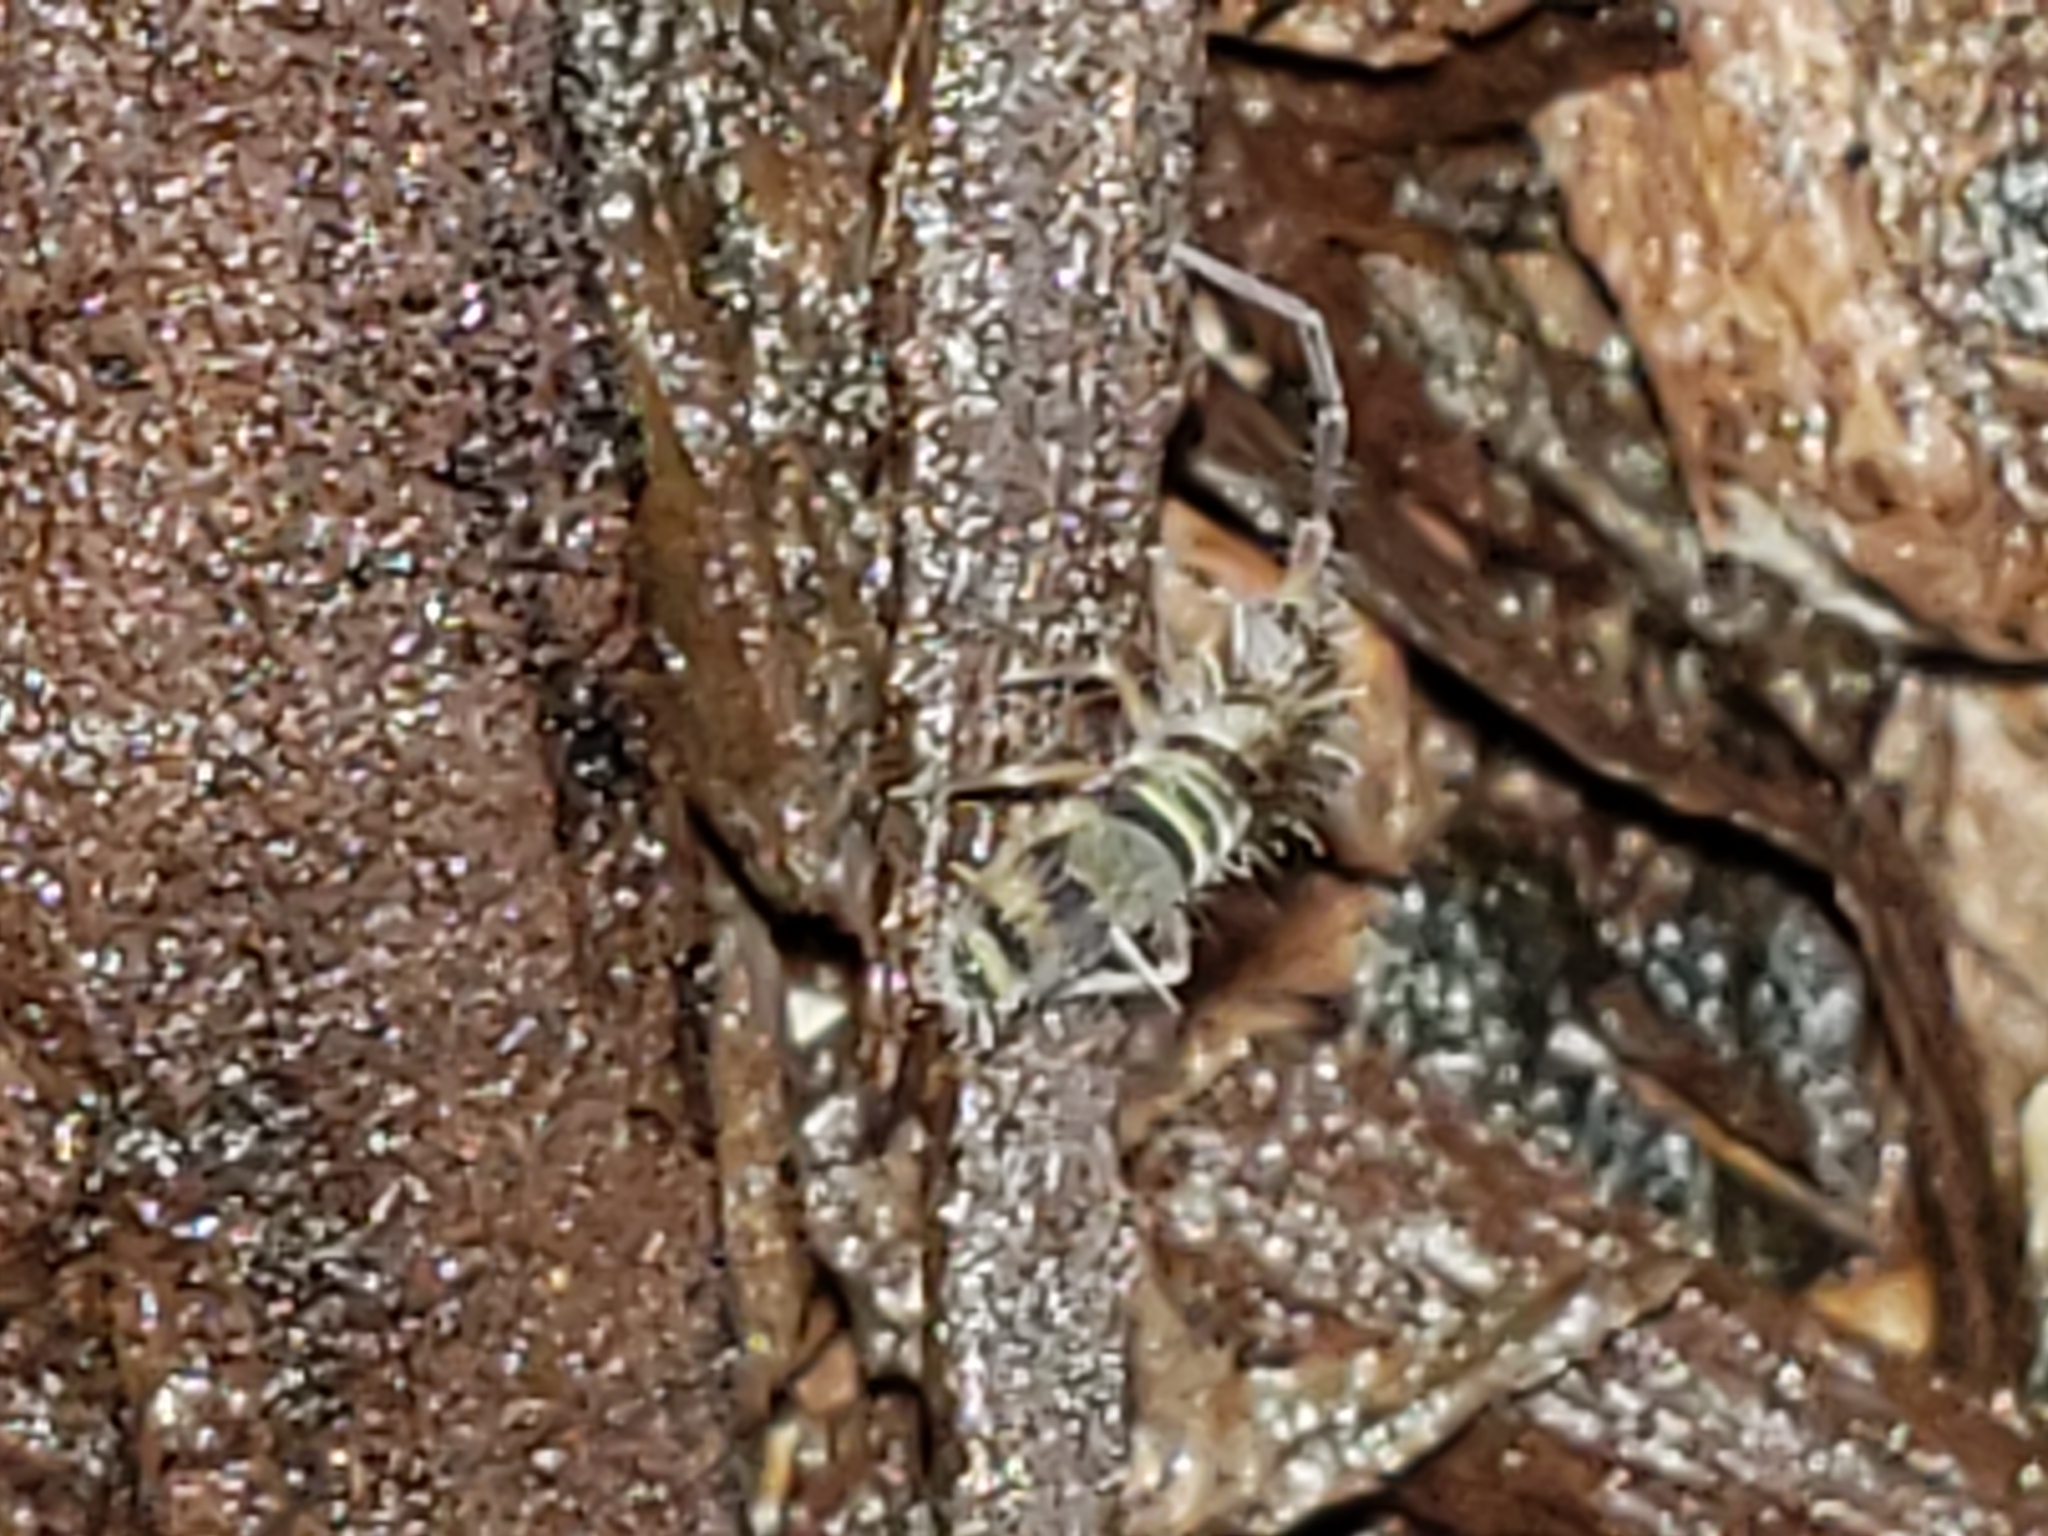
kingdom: Animalia
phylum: Arthropoda
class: Collembola
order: Entomobryomorpha
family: Orchesellidae
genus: Orchesella
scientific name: Orchesella hexfasciata
